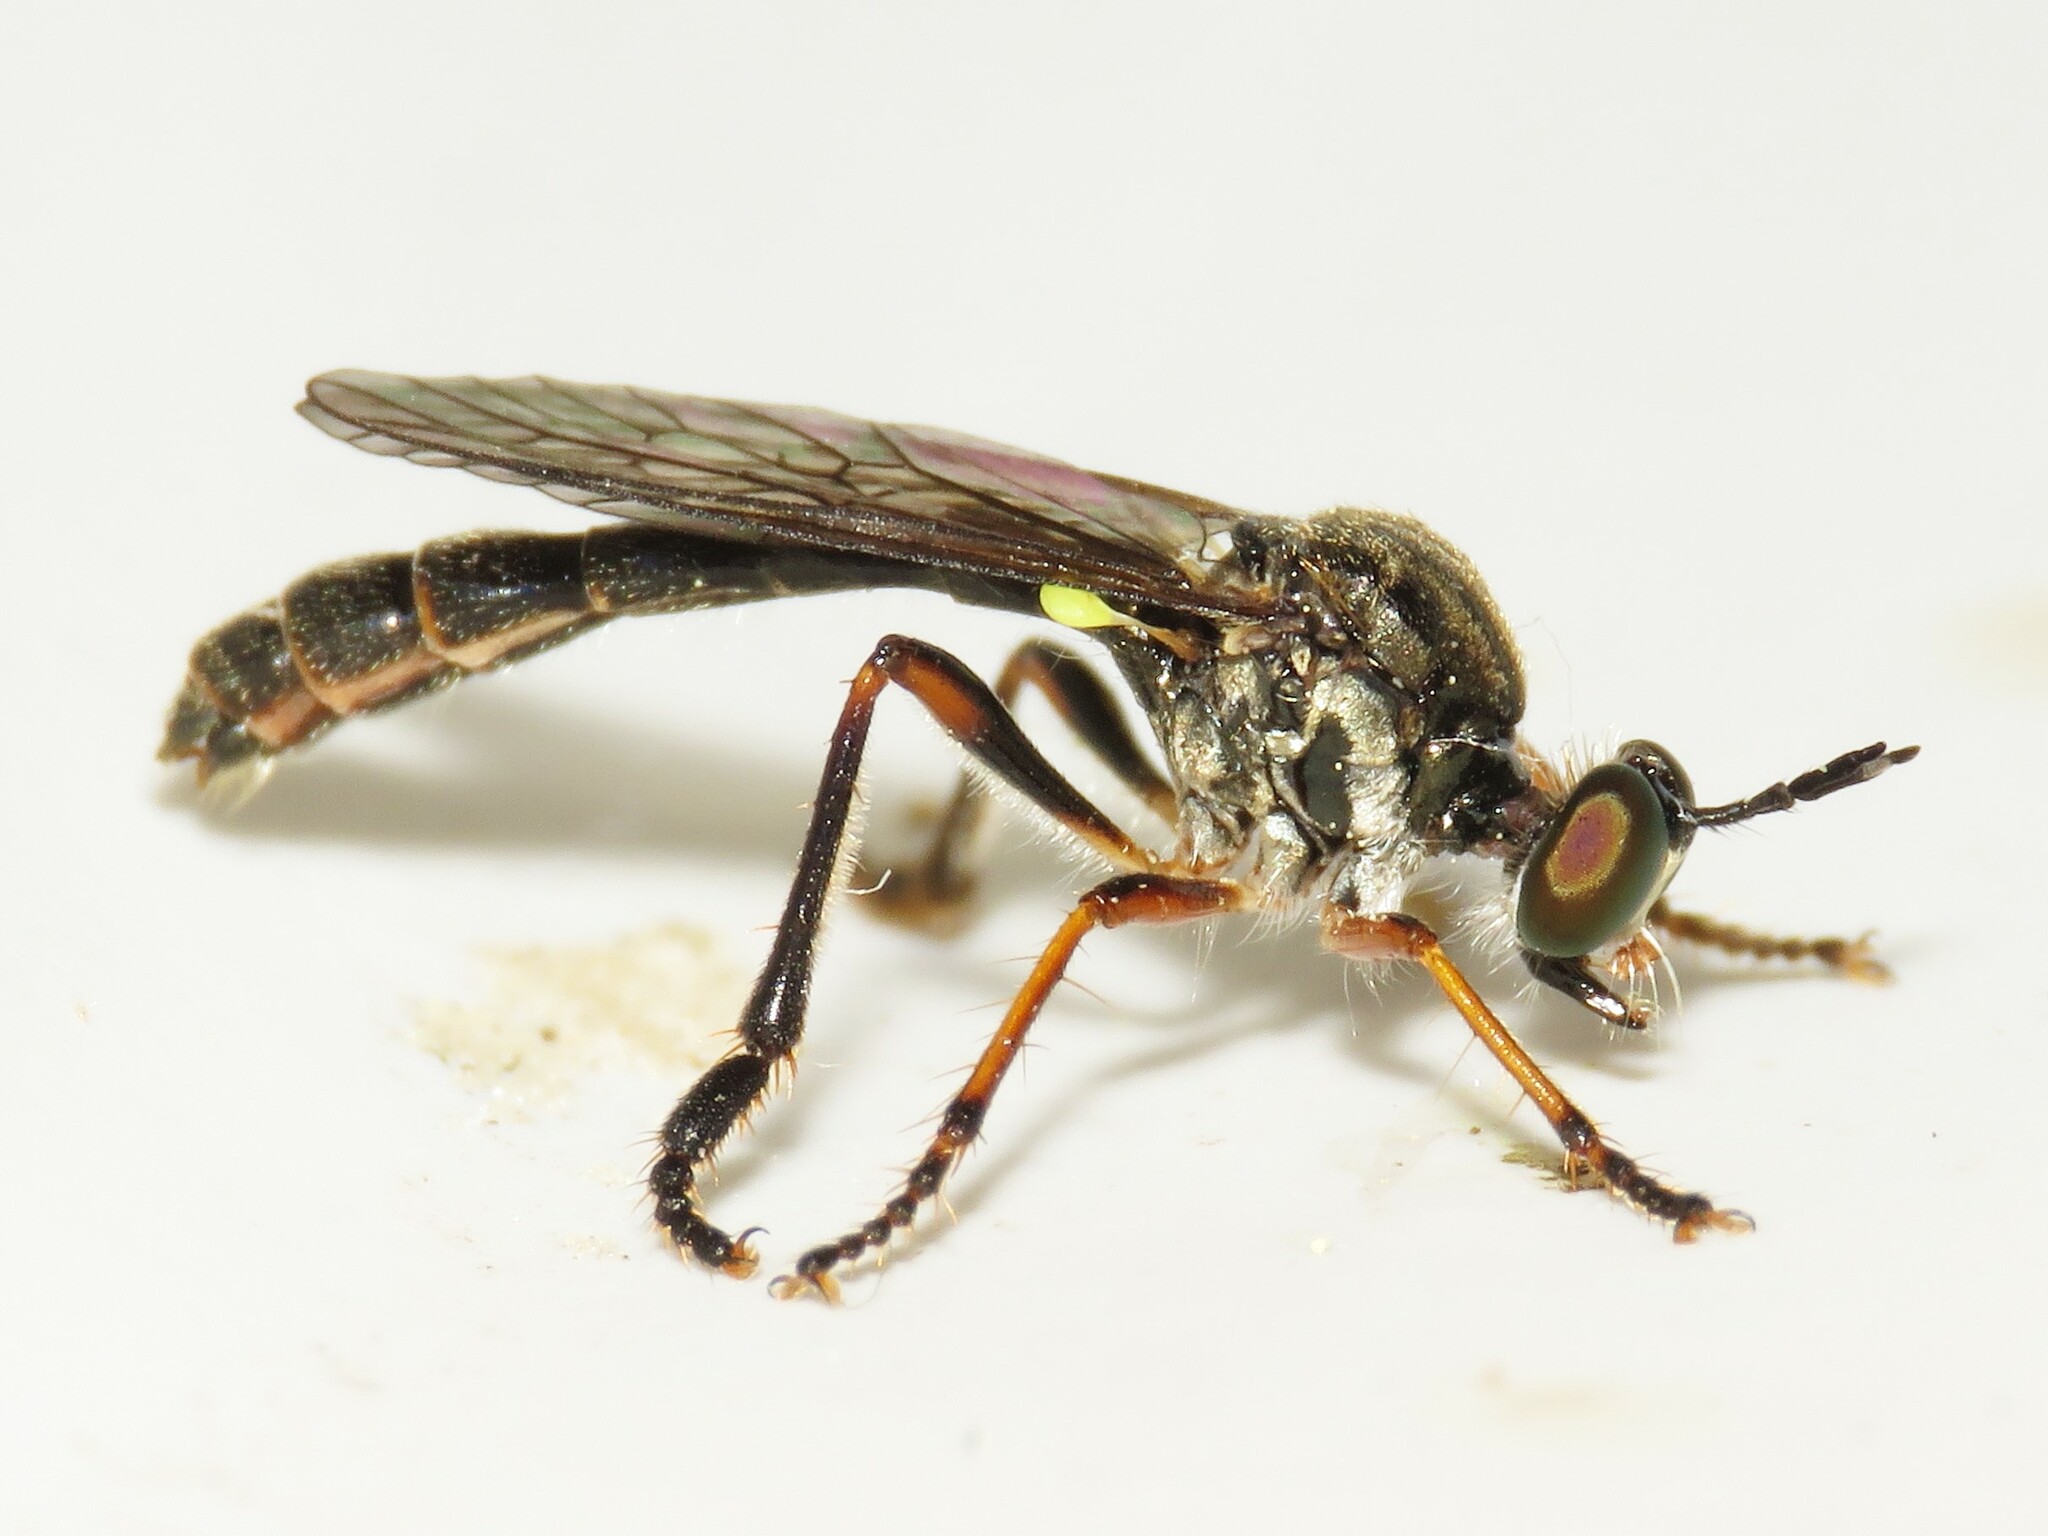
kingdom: Animalia
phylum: Arthropoda
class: Insecta
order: Diptera
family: Asilidae
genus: Dioctria
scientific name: Dioctria hyalipennis
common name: Stripe-legged robberfly
